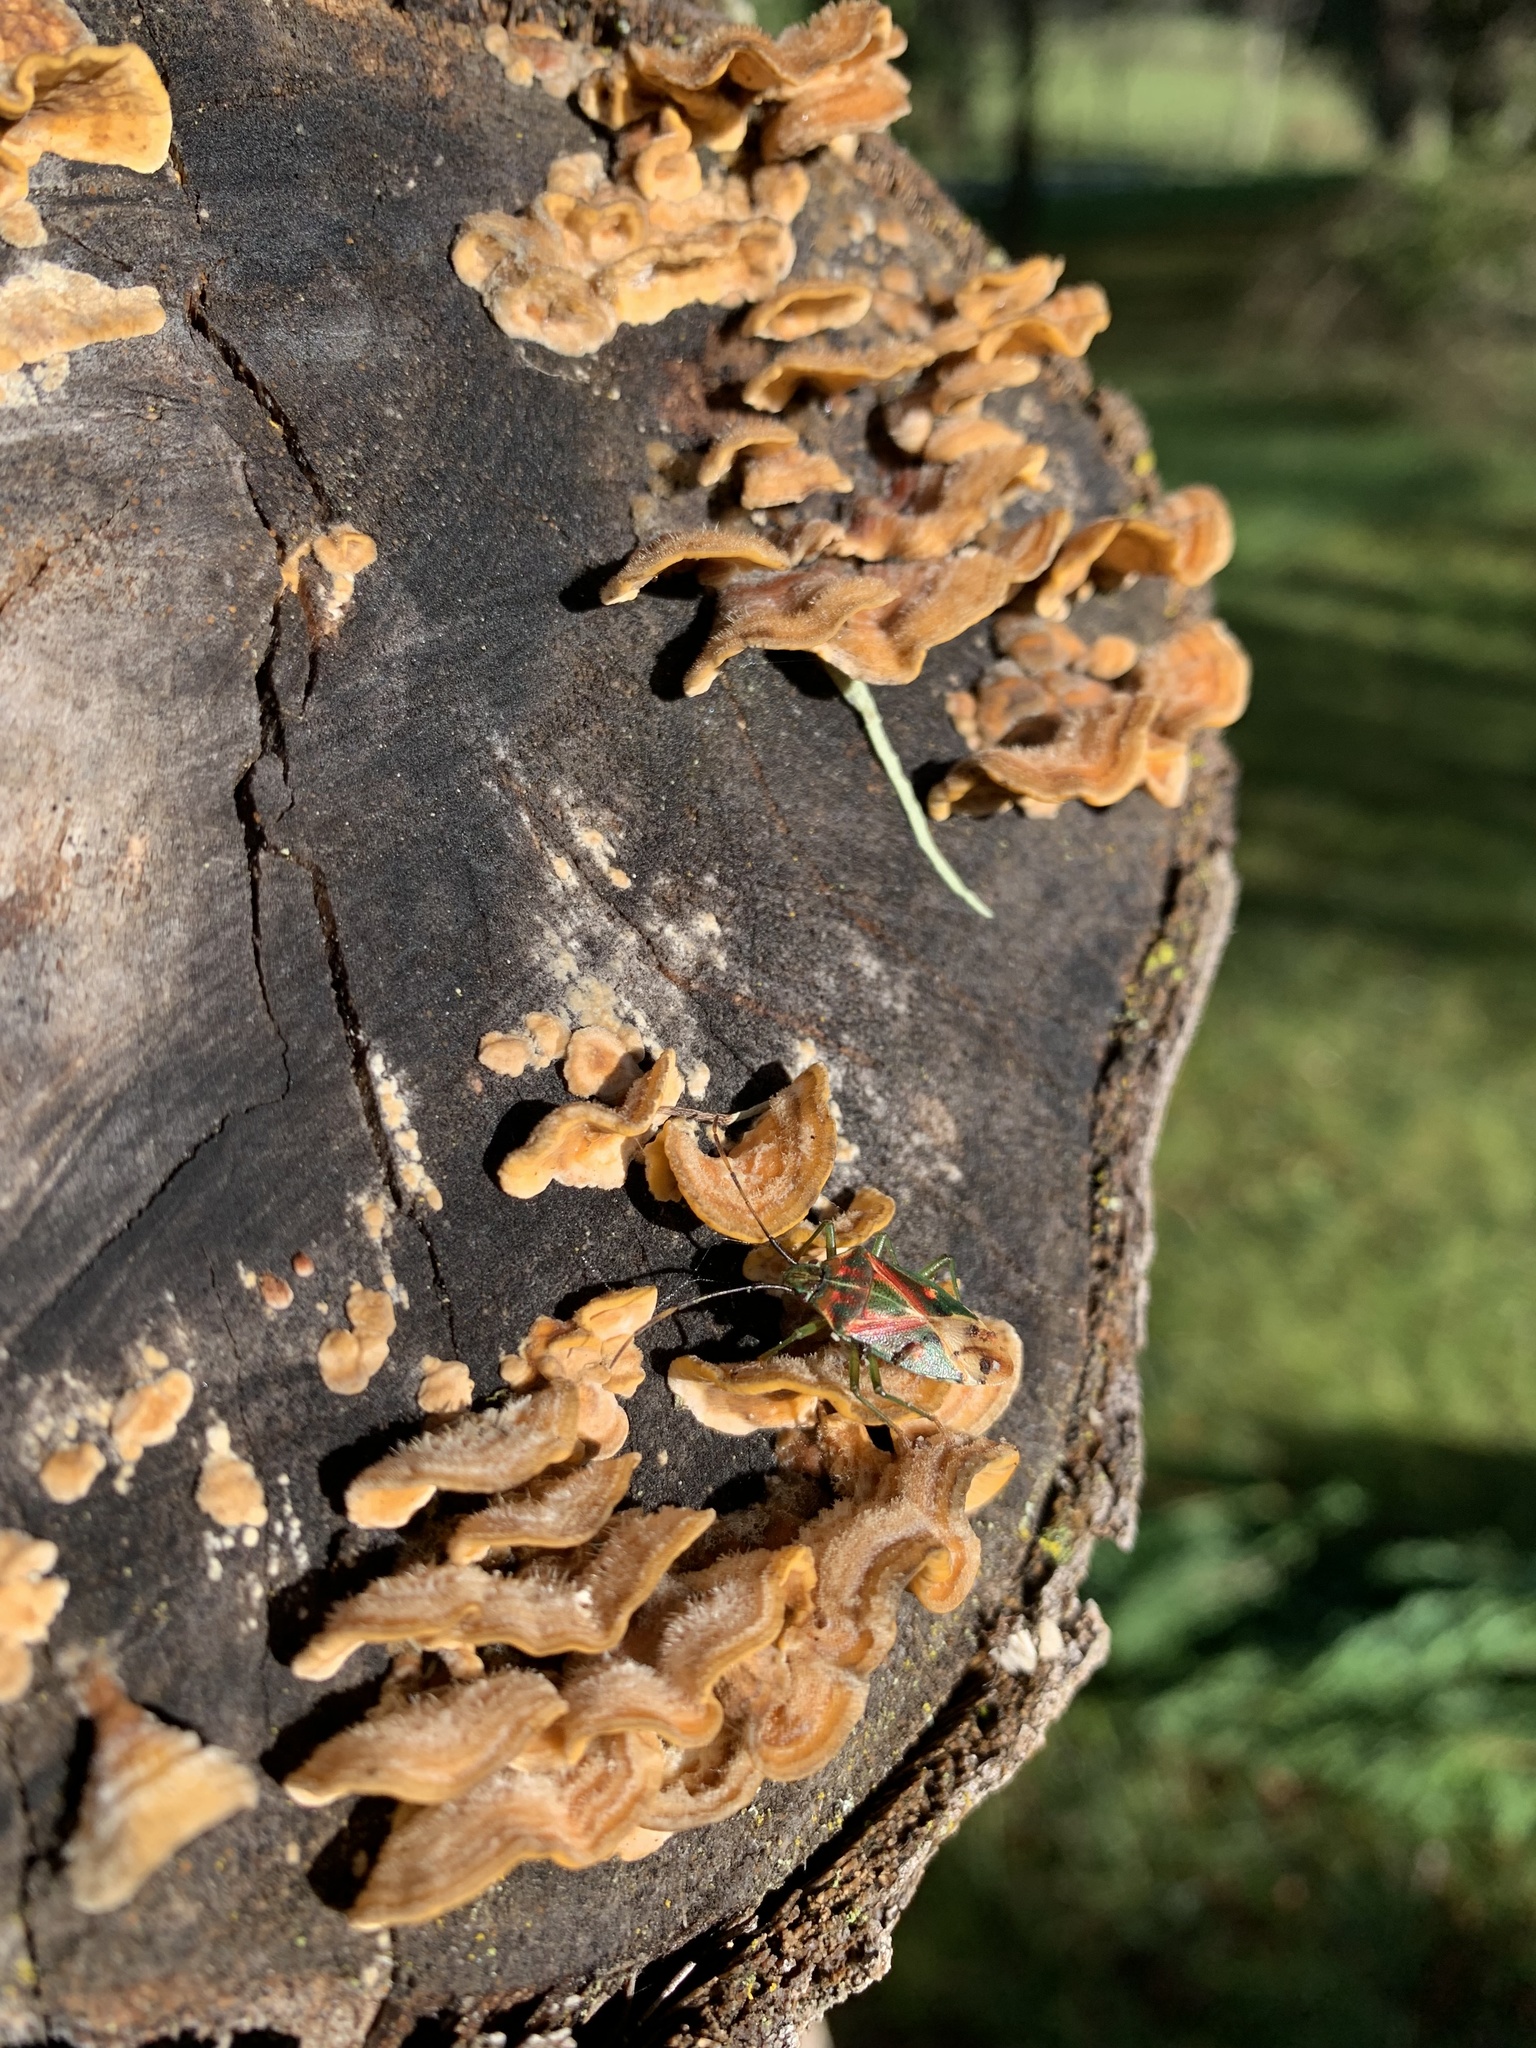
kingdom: Animalia
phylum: Arthropoda
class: Insecta
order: Hemiptera
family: Acanthosomatidae
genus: Planois
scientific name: Planois gayi
